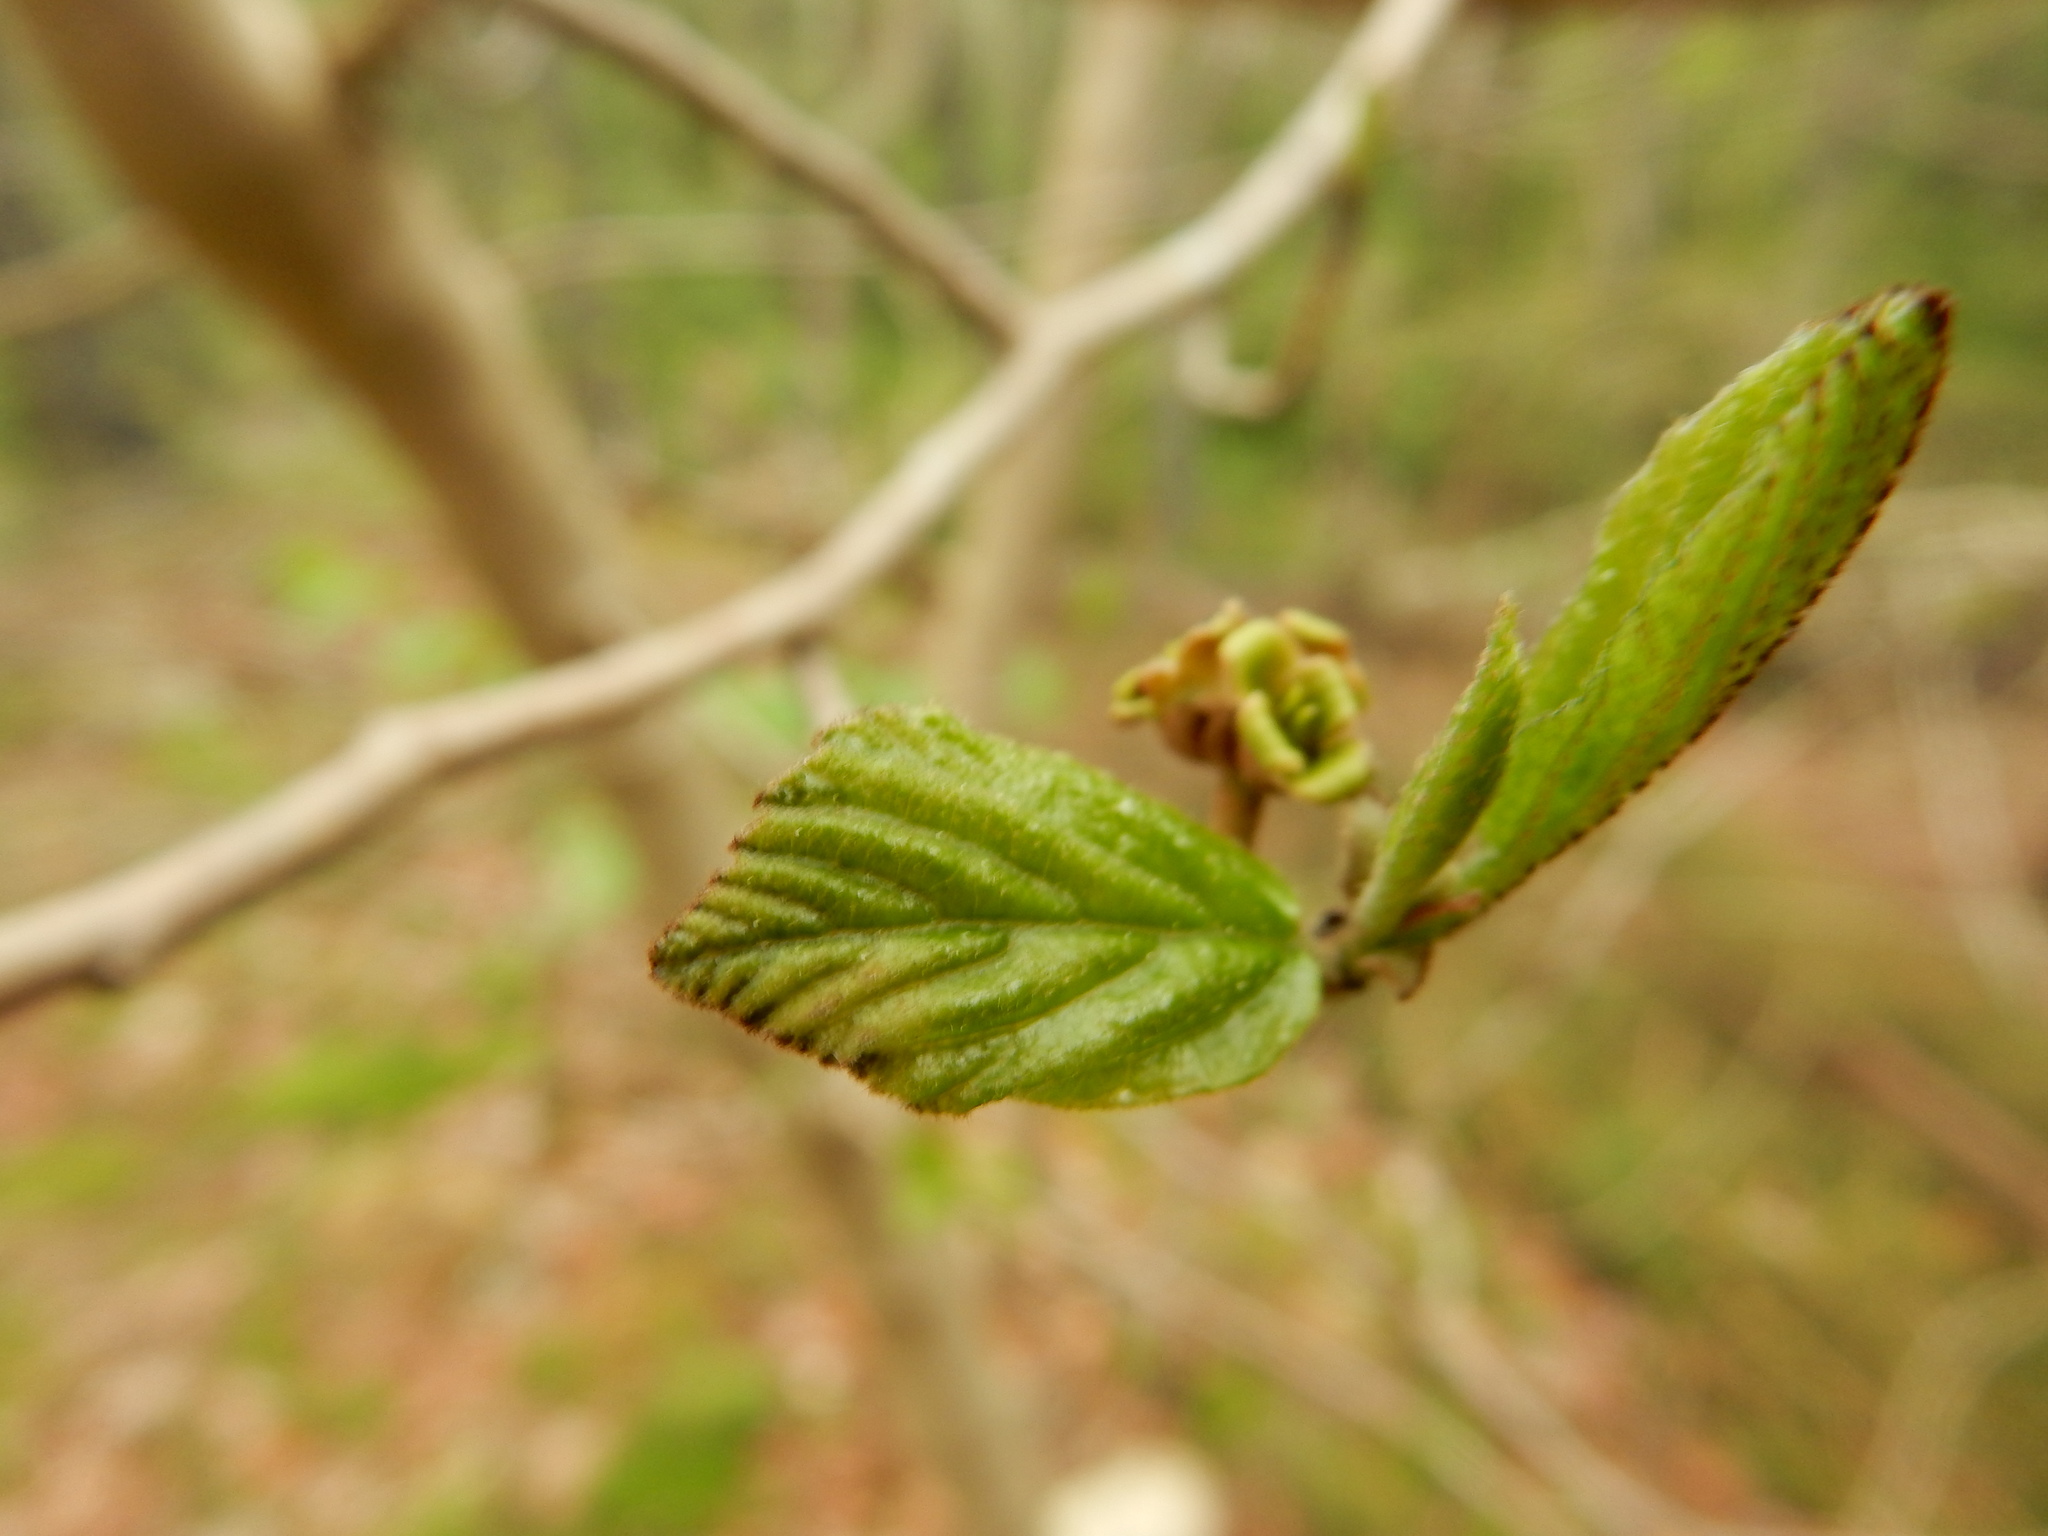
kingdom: Plantae
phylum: Tracheophyta
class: Magnoliopsida
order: Saxifragales
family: Hamamelidaceae
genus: Hamamelis
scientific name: Hamamelis virginiana
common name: Witch-hazel
